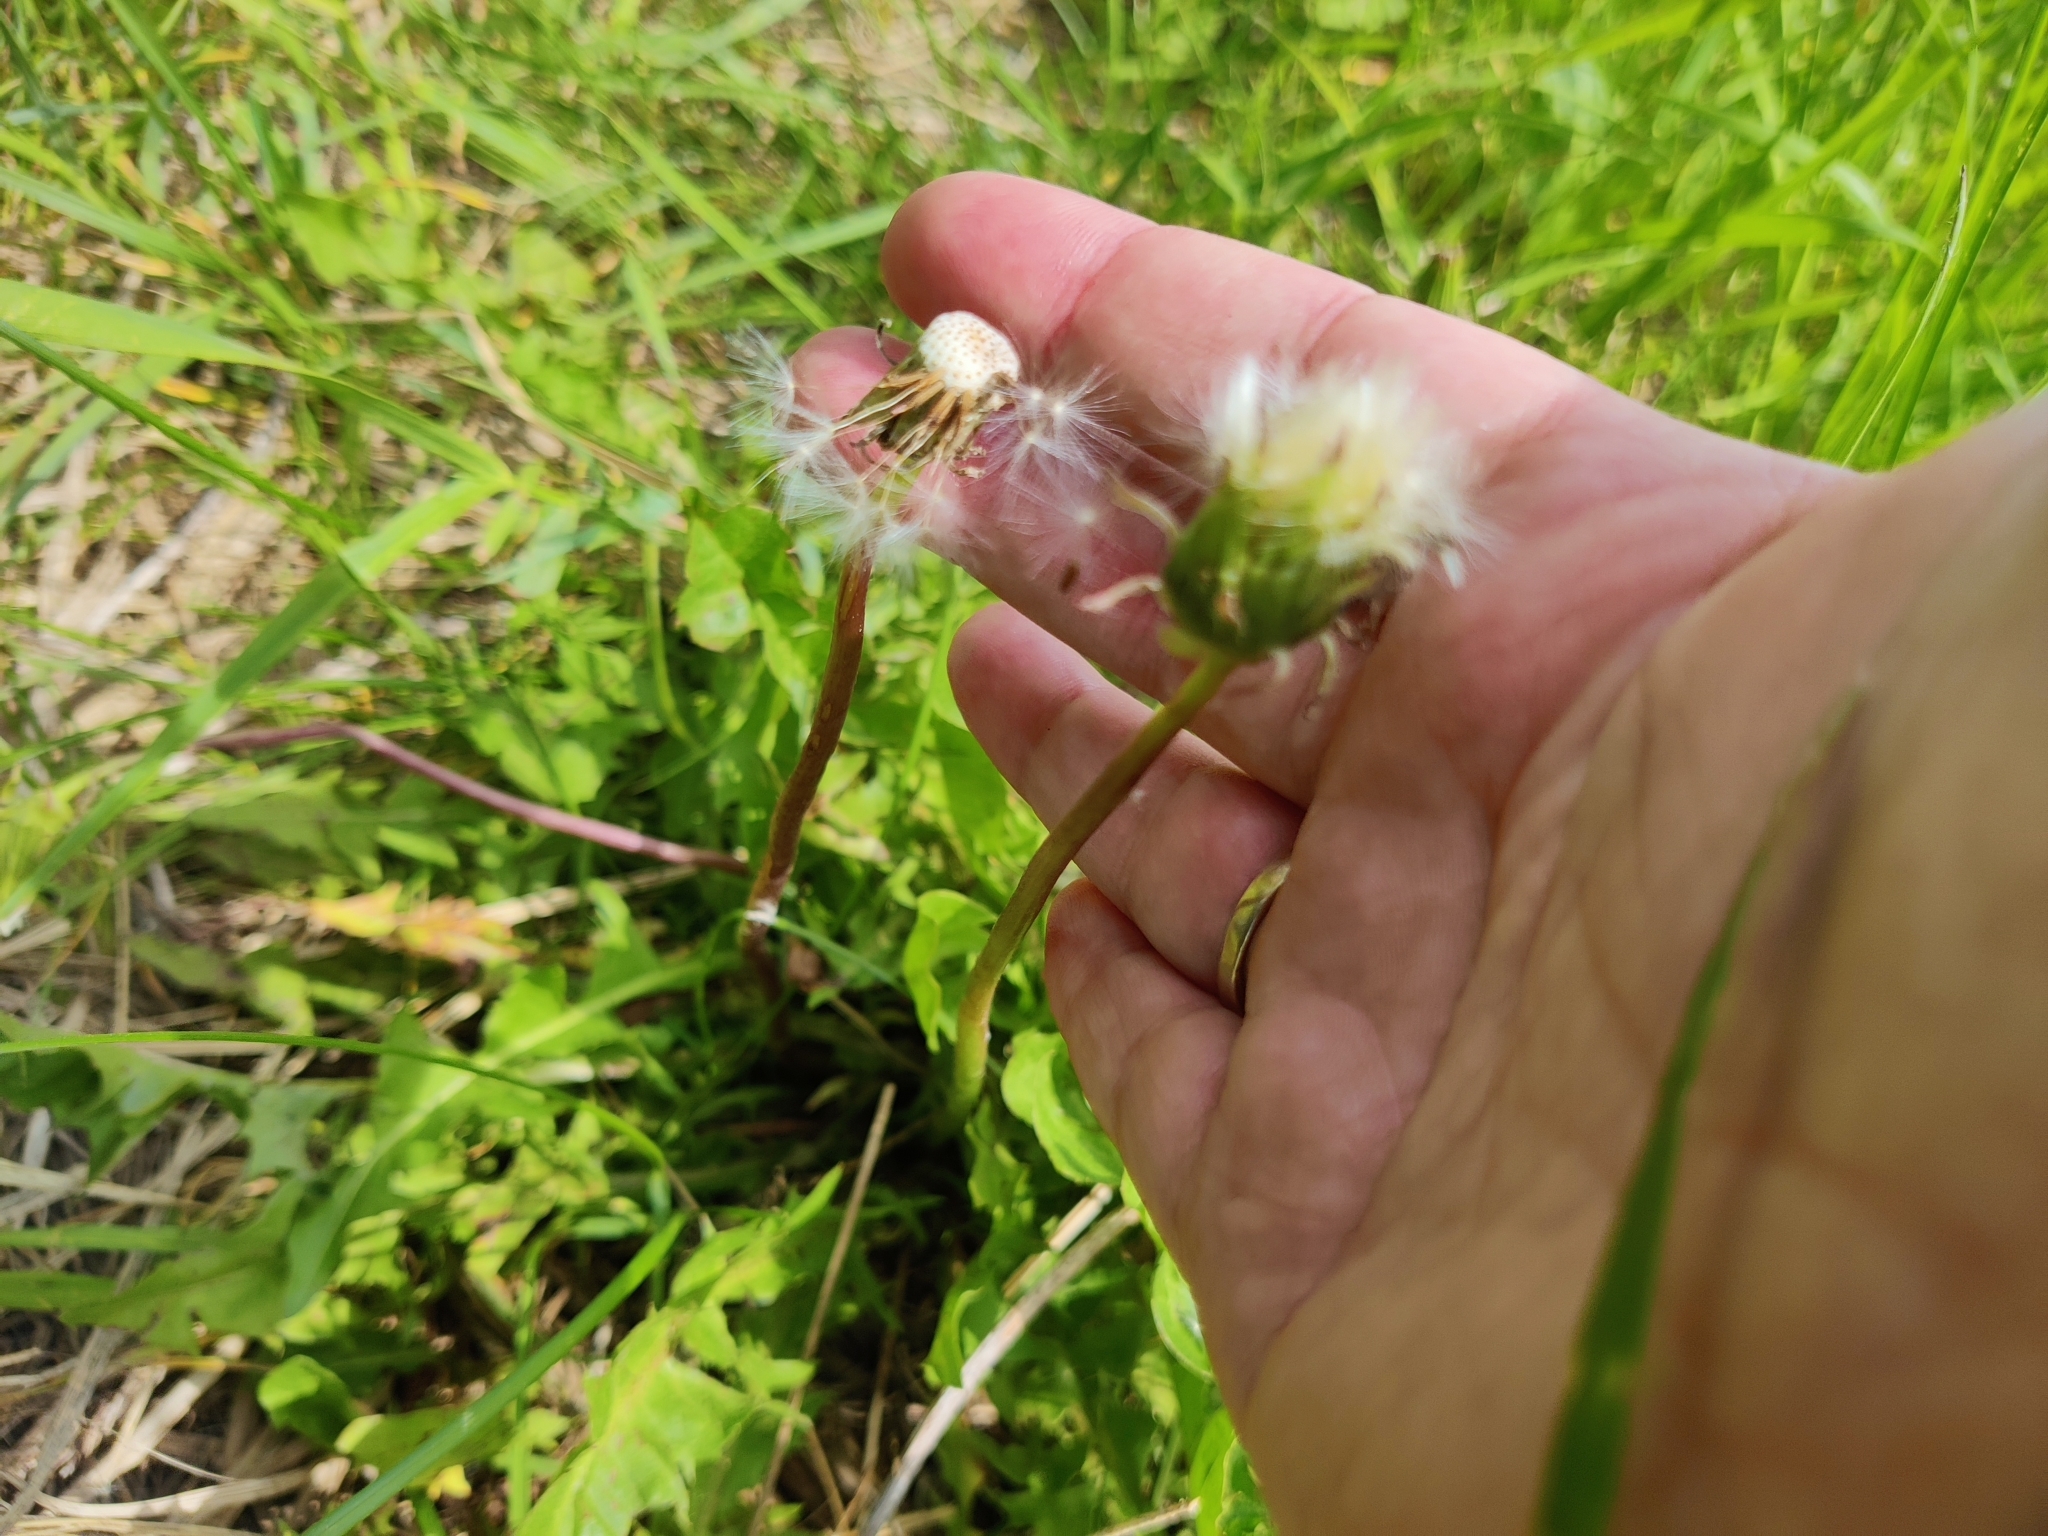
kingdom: Plantae
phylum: Tracheophyta
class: Magnoliopsida
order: Asterales
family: Asteraceae
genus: Taraxacum
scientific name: Taraxacum officinale
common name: Common dandelion
